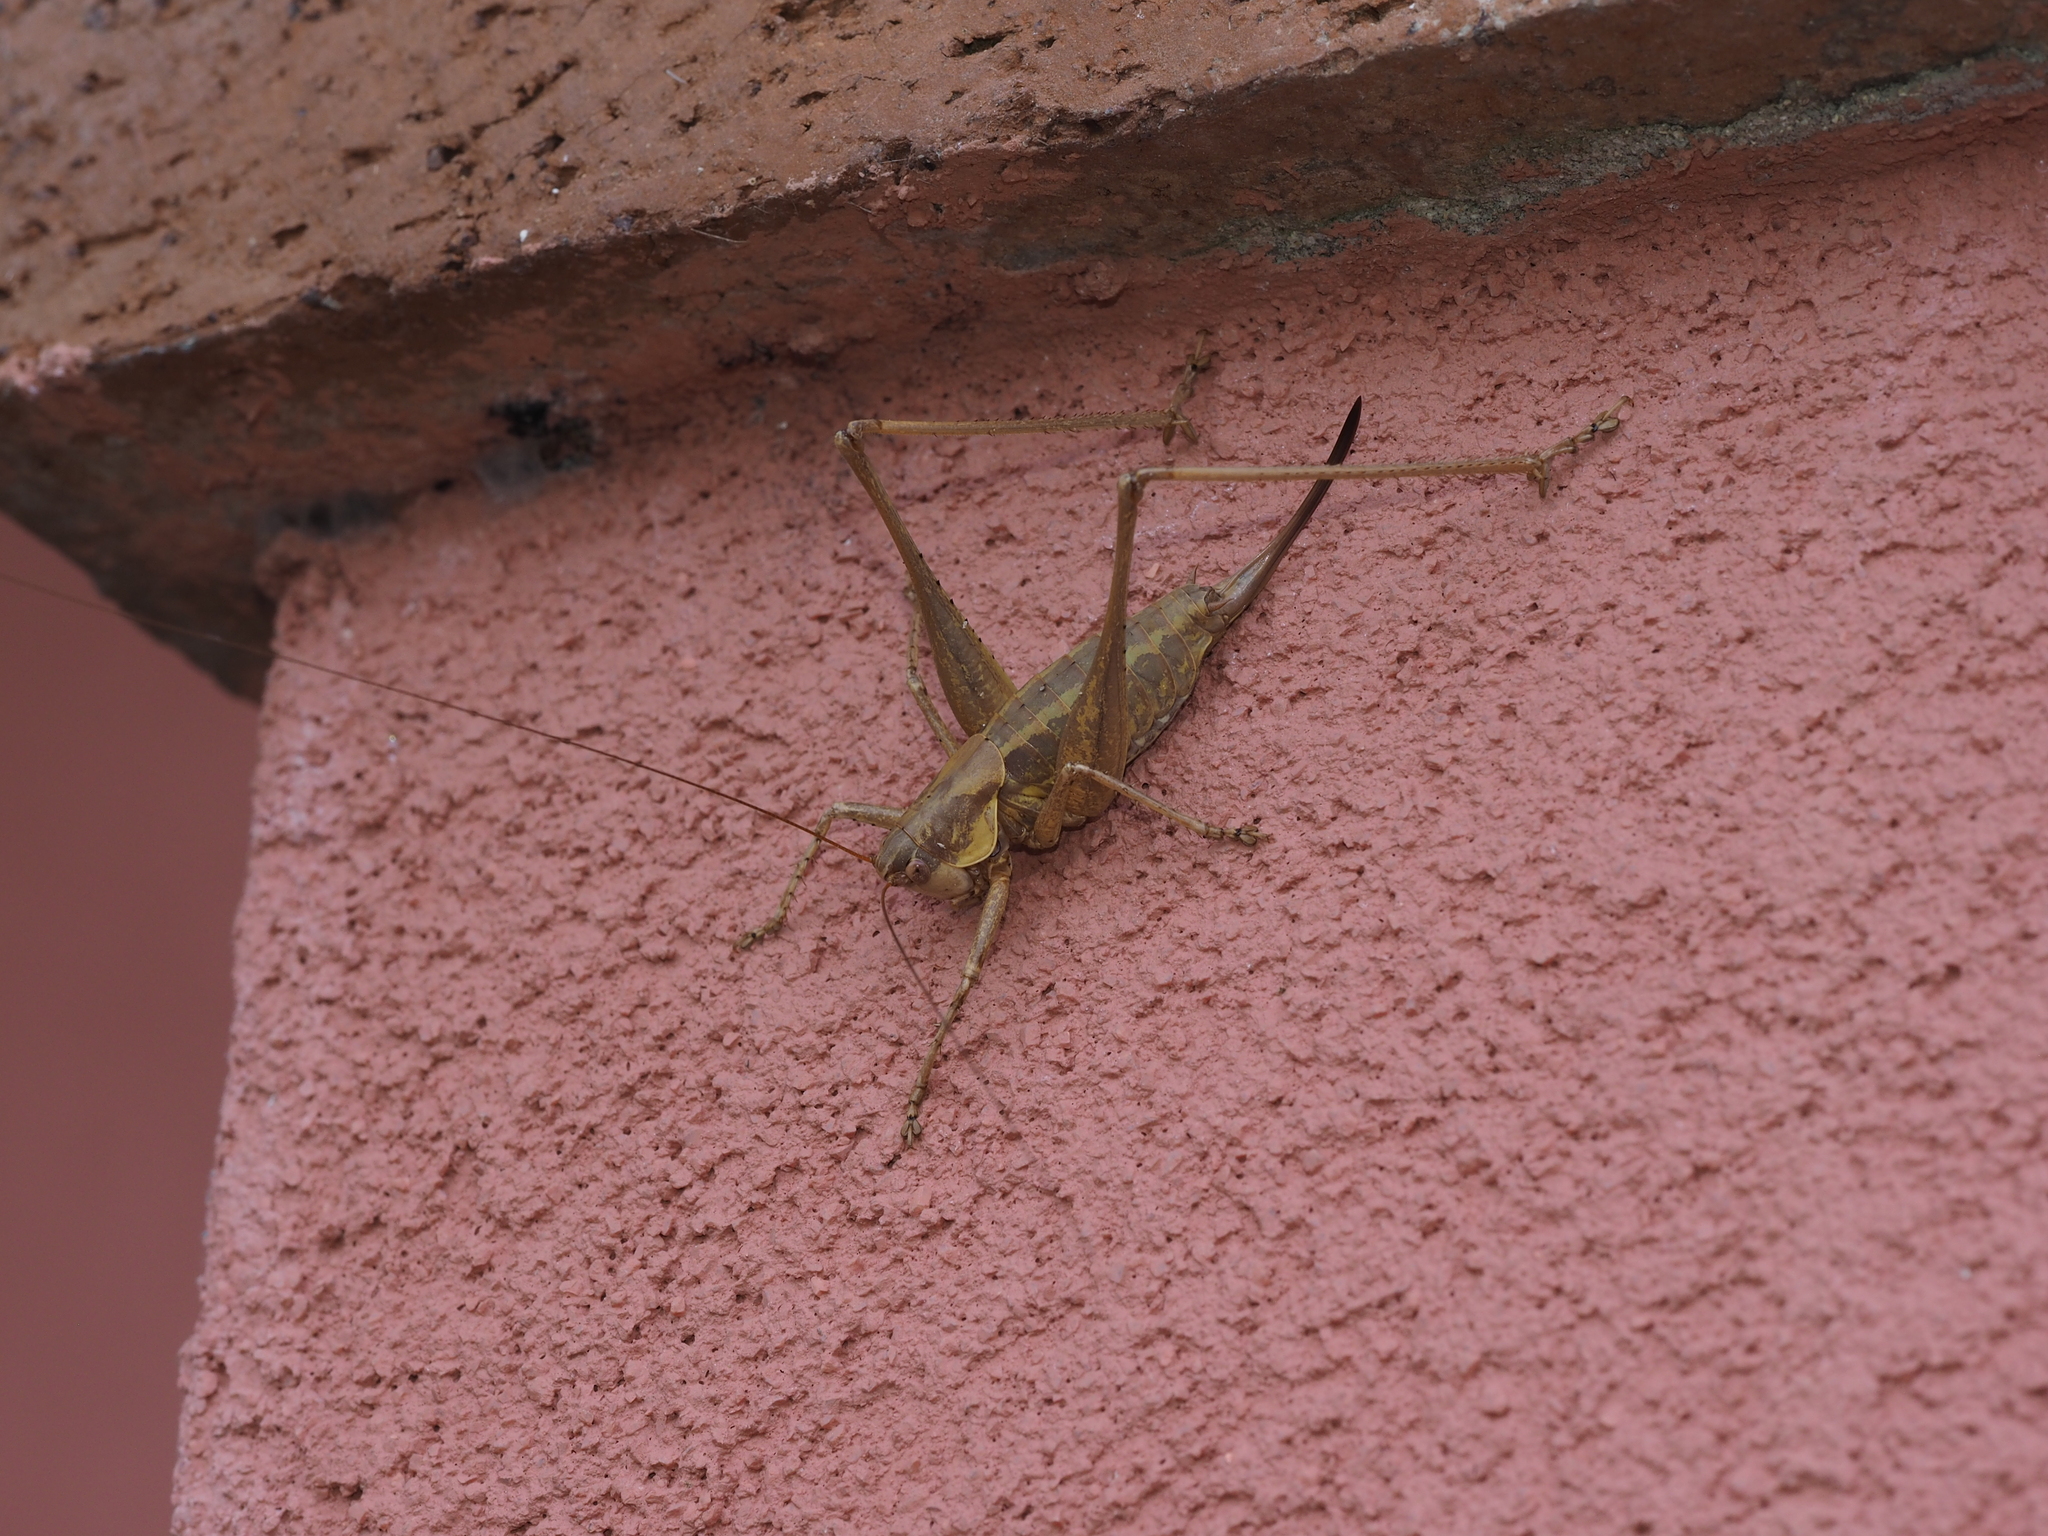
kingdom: Animalia
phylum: Arthropoda
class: Insecta
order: Orthoptera
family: Tettigoniidae
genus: Rhacocleis
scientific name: Rhacocleis annulata
